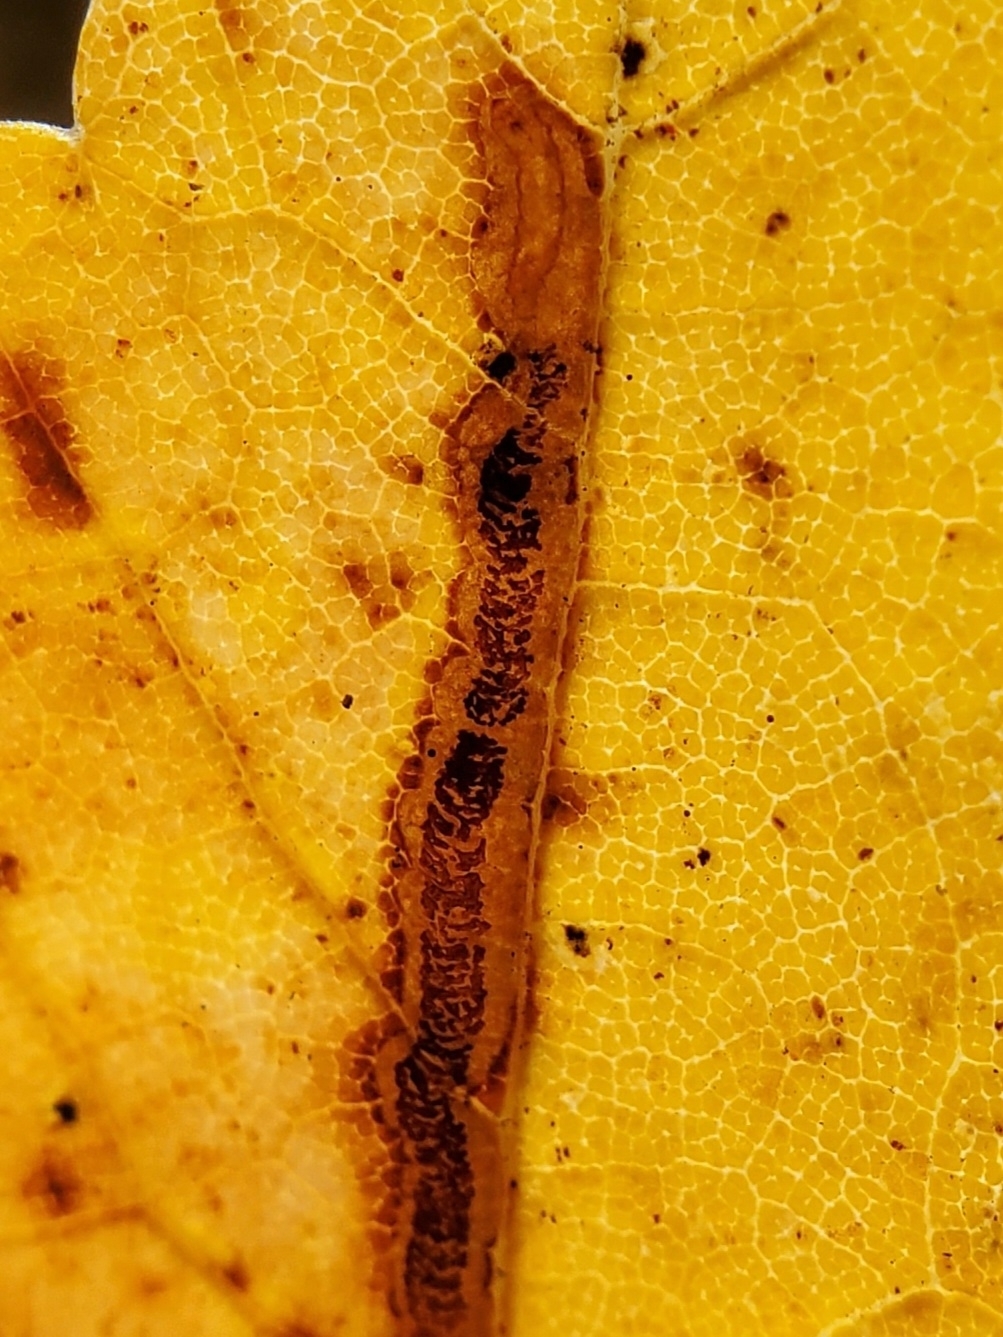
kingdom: Animalia
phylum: Arthropoda
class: Insecta
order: Lepidoptera
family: Nepticulidae
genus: Glaucolepis
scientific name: Glaucolepis saccharella
